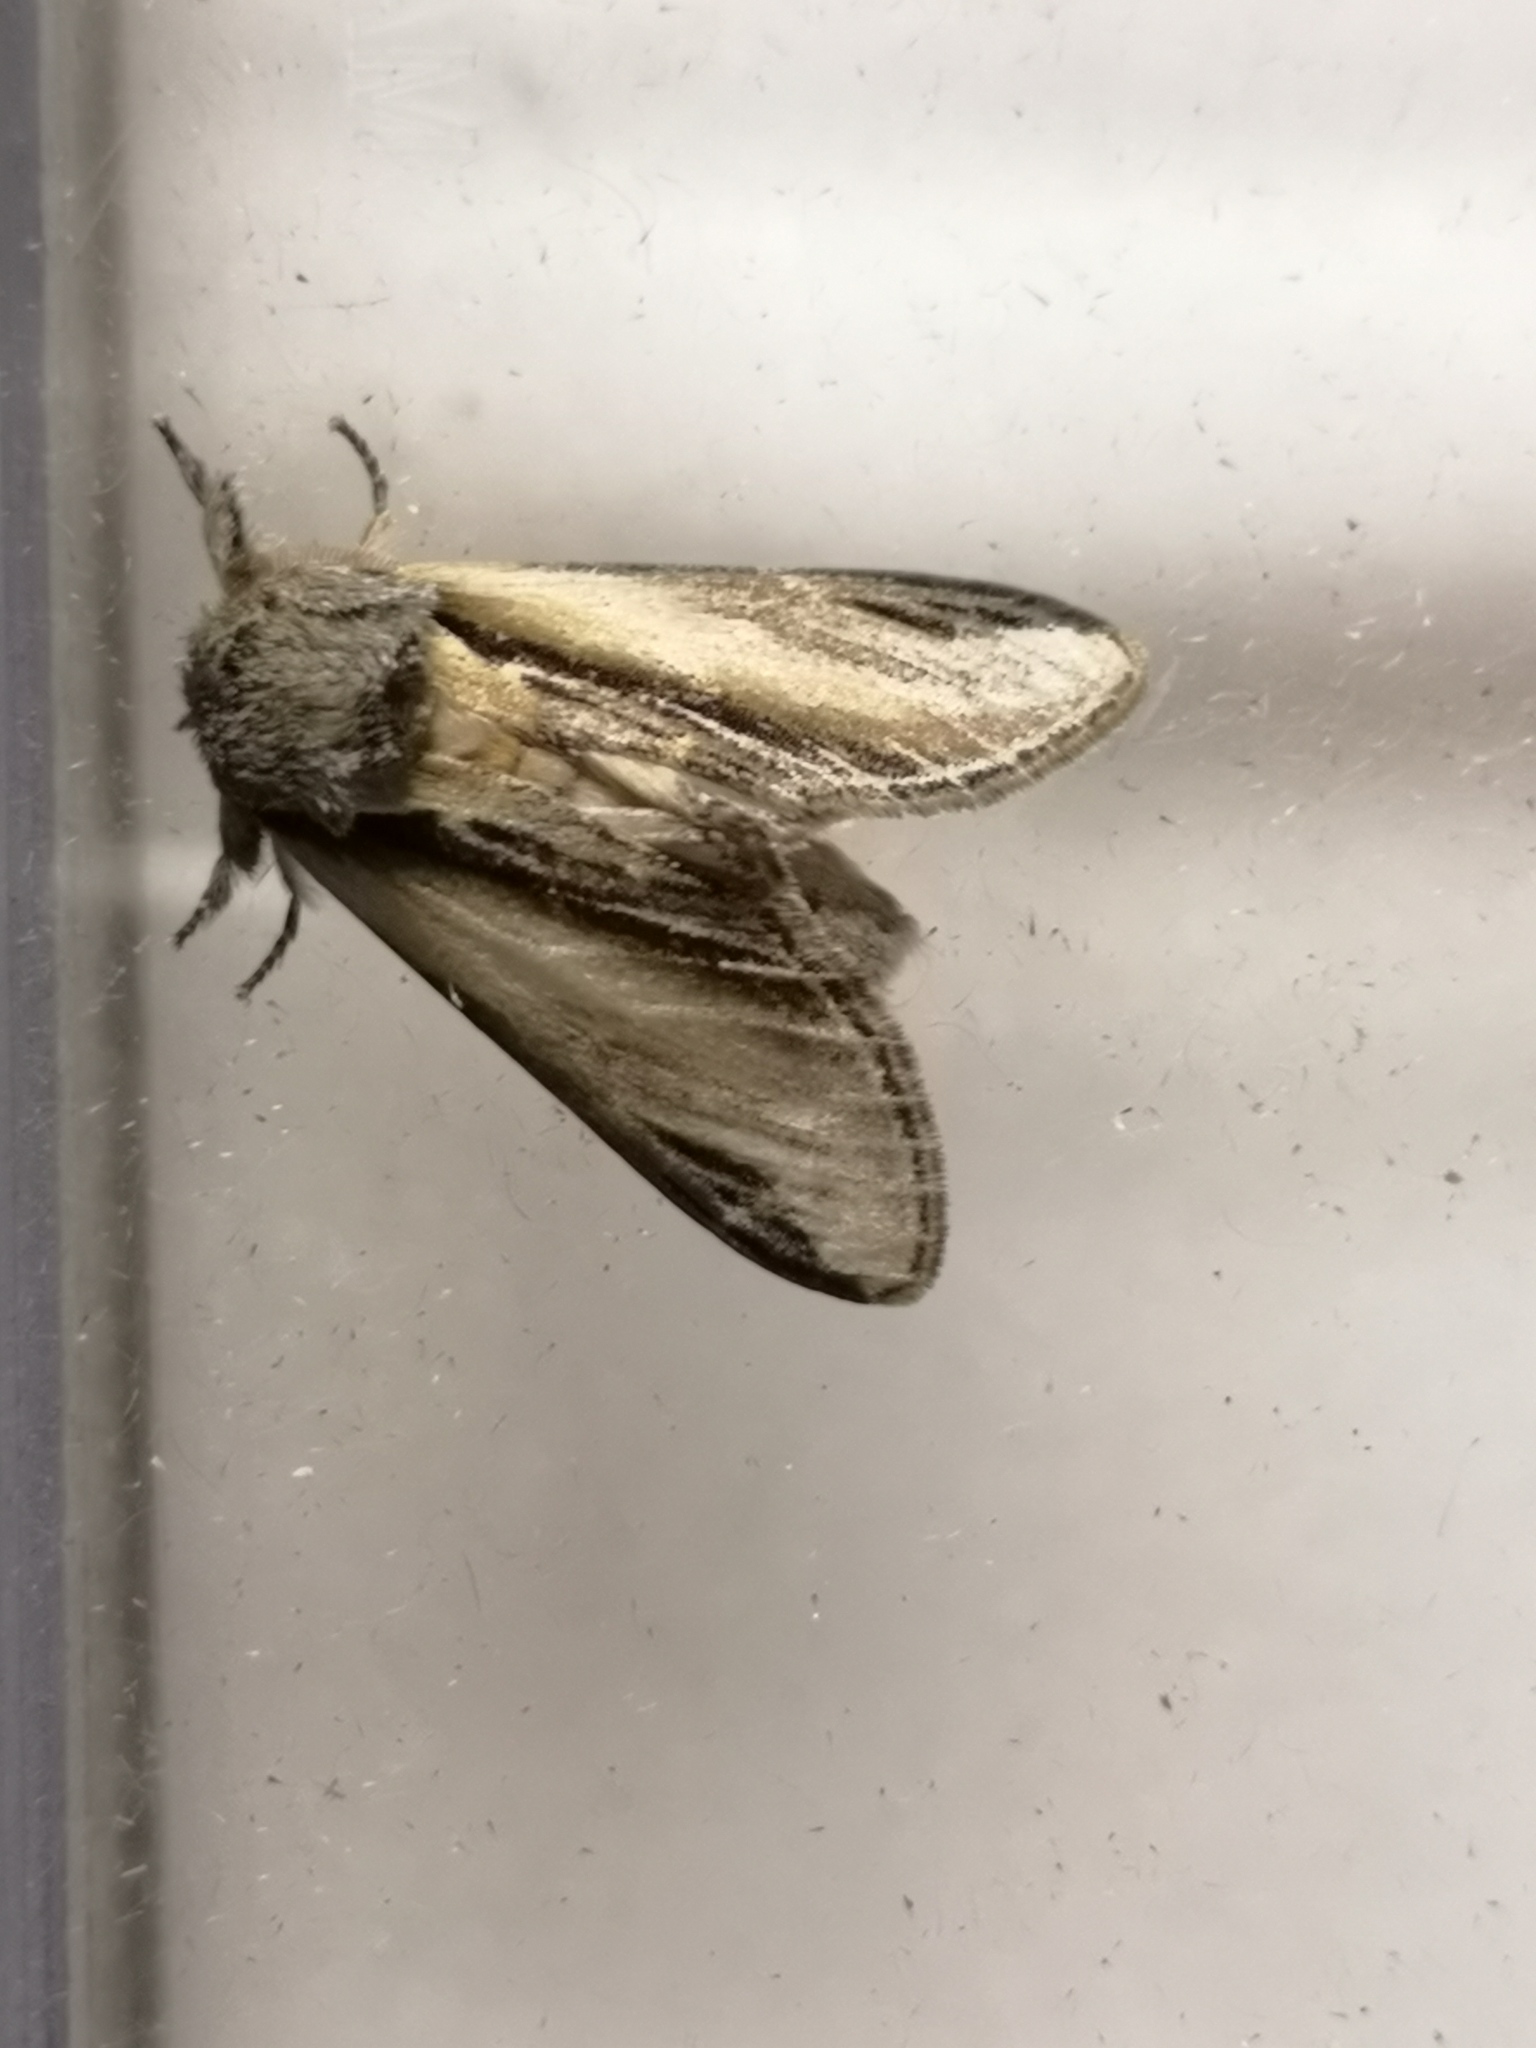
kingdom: Animalia
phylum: Arthropoda
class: Insecta
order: Lepidoptera
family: Notodontidae
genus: Pheosia
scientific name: Pheosia tremula
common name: Swallow prominent
